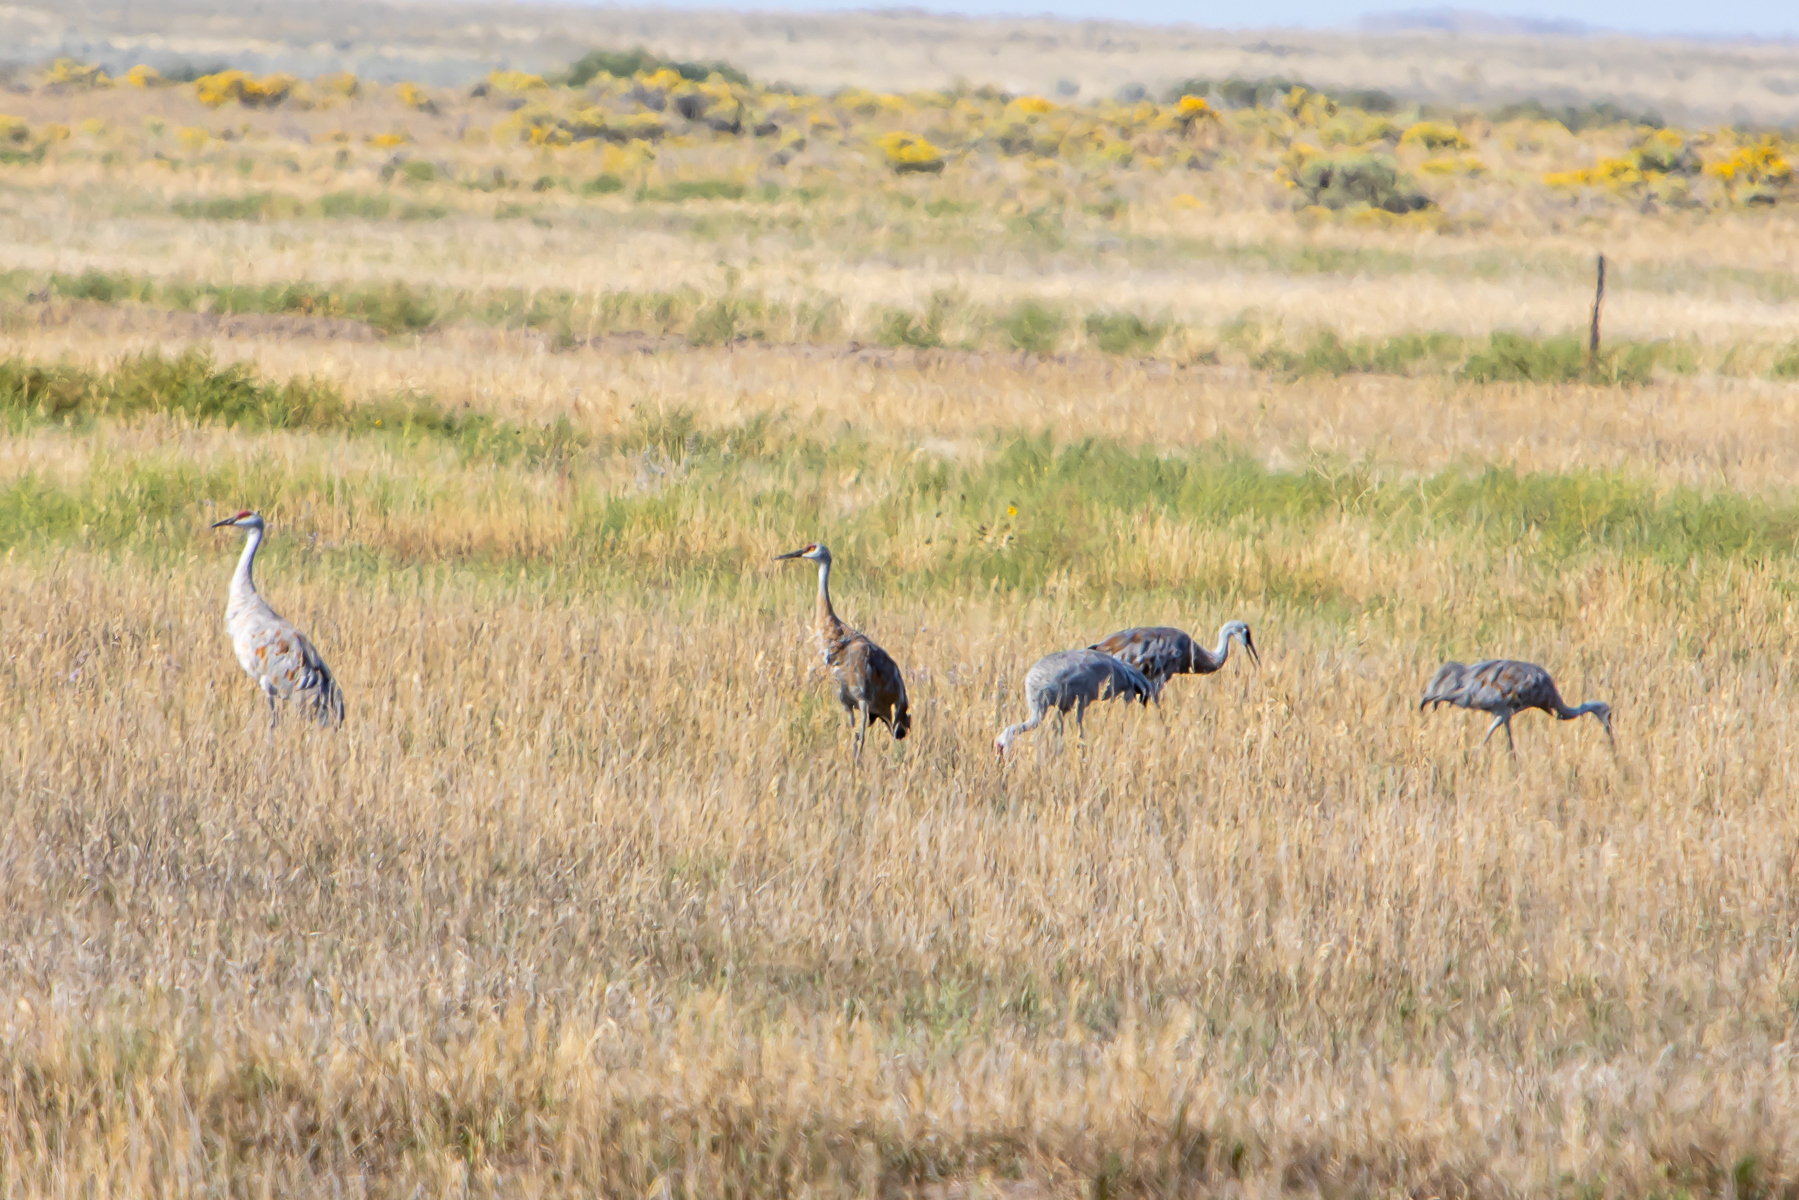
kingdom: Animalia
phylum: Chordata
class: Aves
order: Gruiformes
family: Gruidae
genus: Grus
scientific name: Grus canadensis
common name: Sandhill crane
